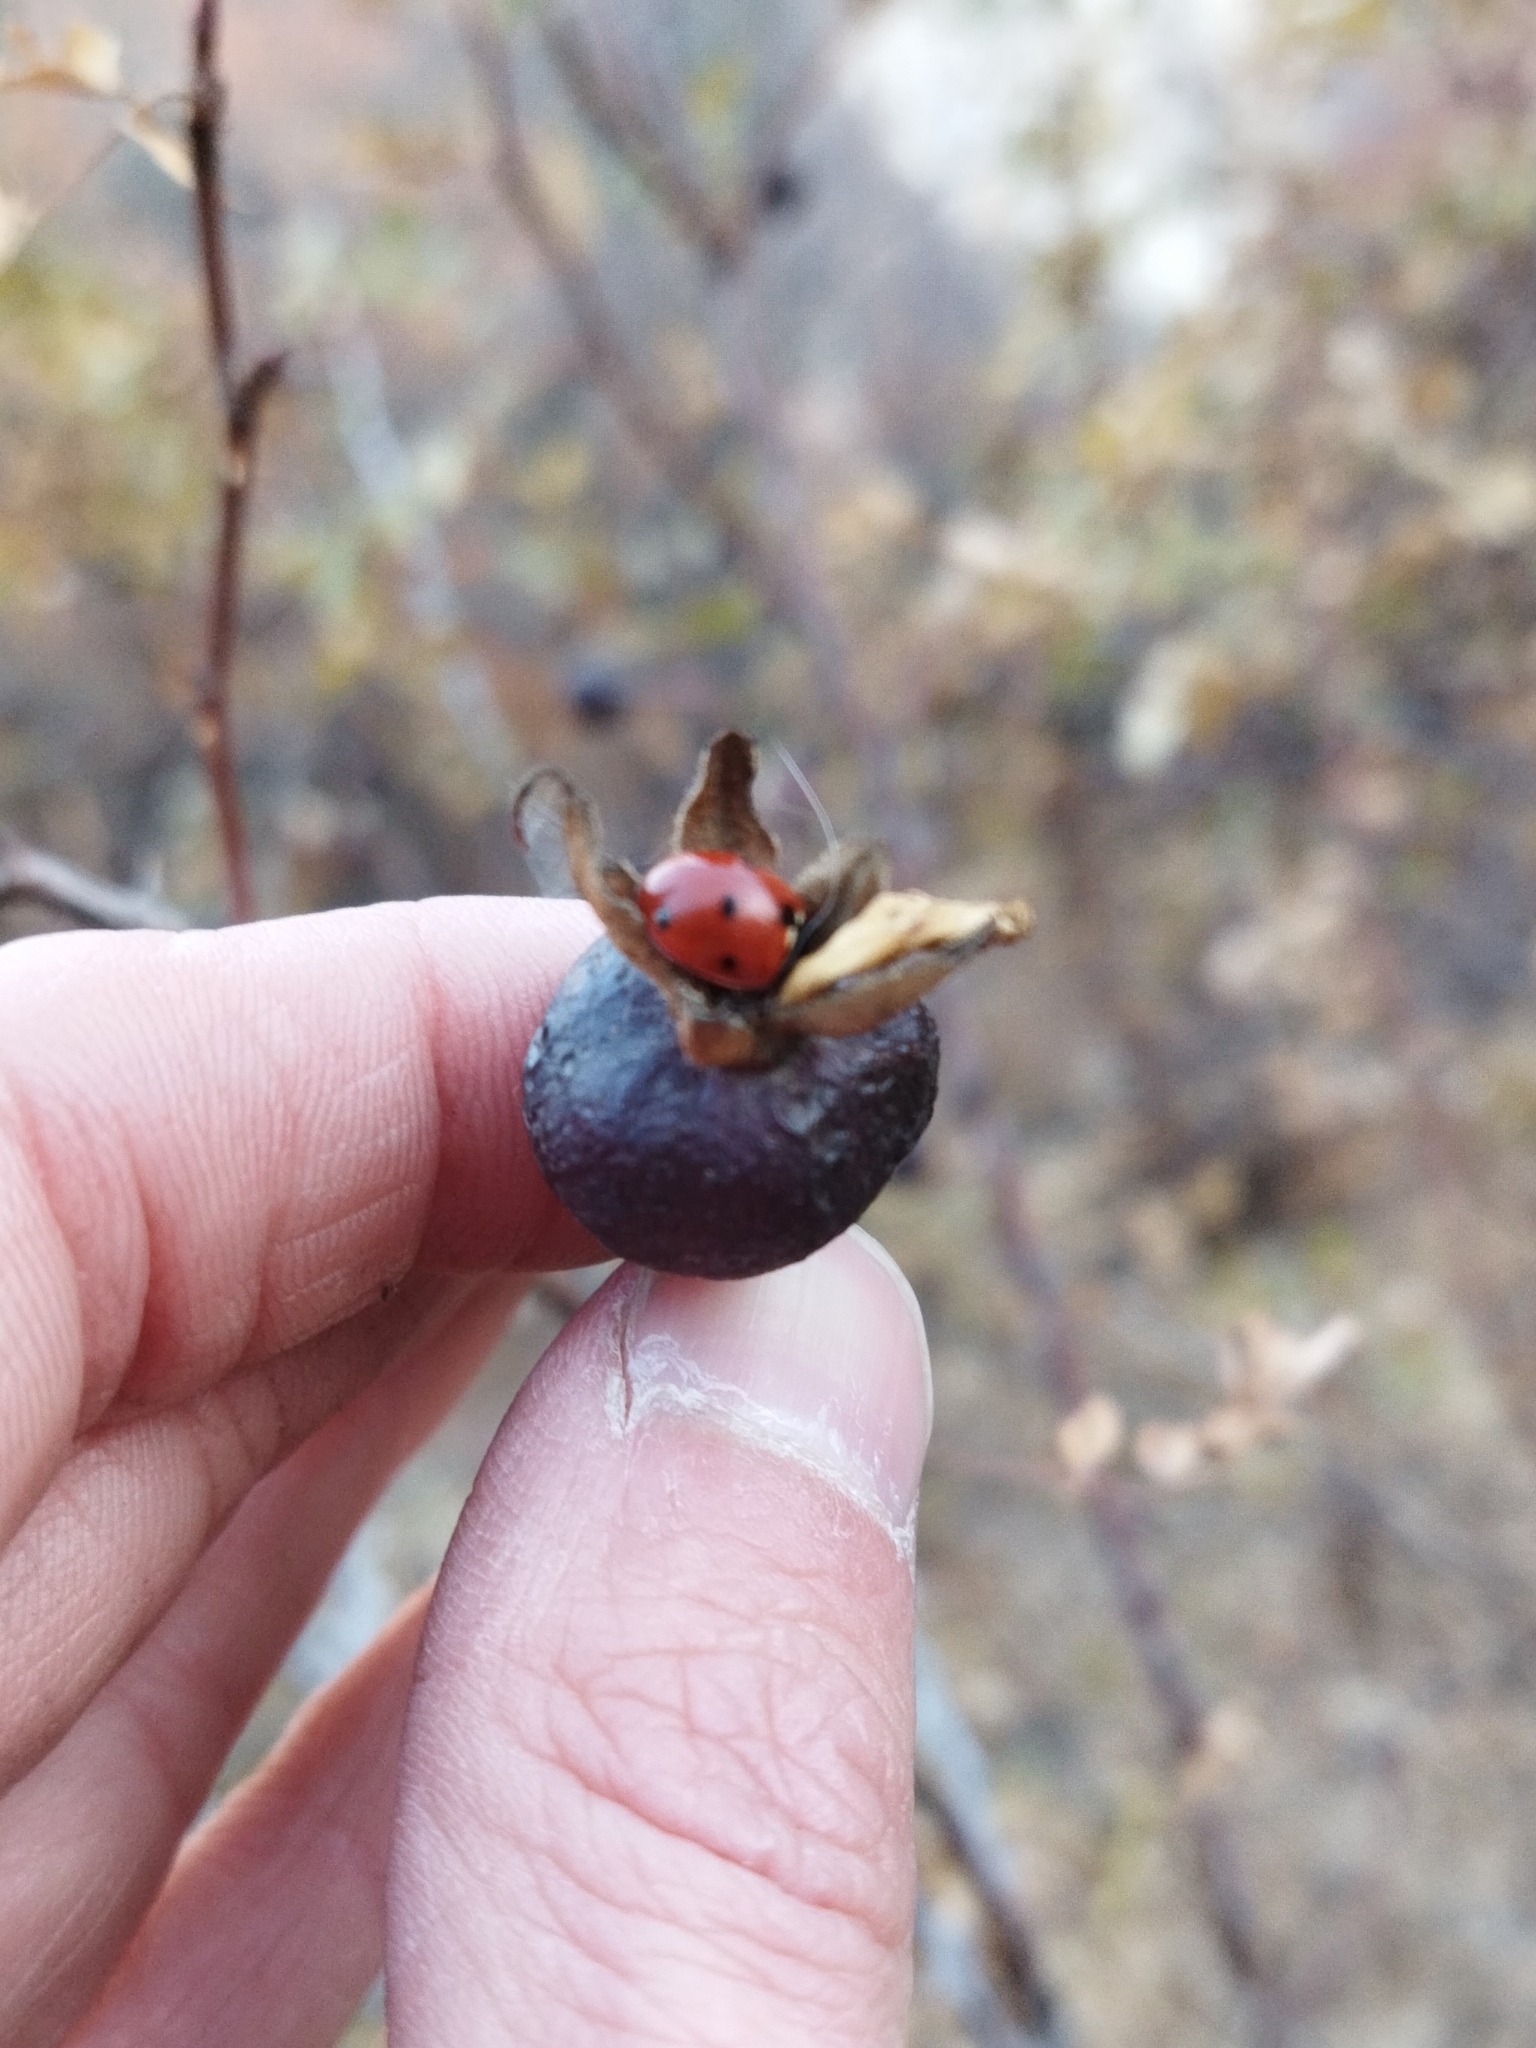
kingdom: Animalia
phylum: Arthropoda
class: Insecta
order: Coleoptera
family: Coccinellidae
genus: Coccinella
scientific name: Coccinella septempunctata
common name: Sevenspotted lady beetle
